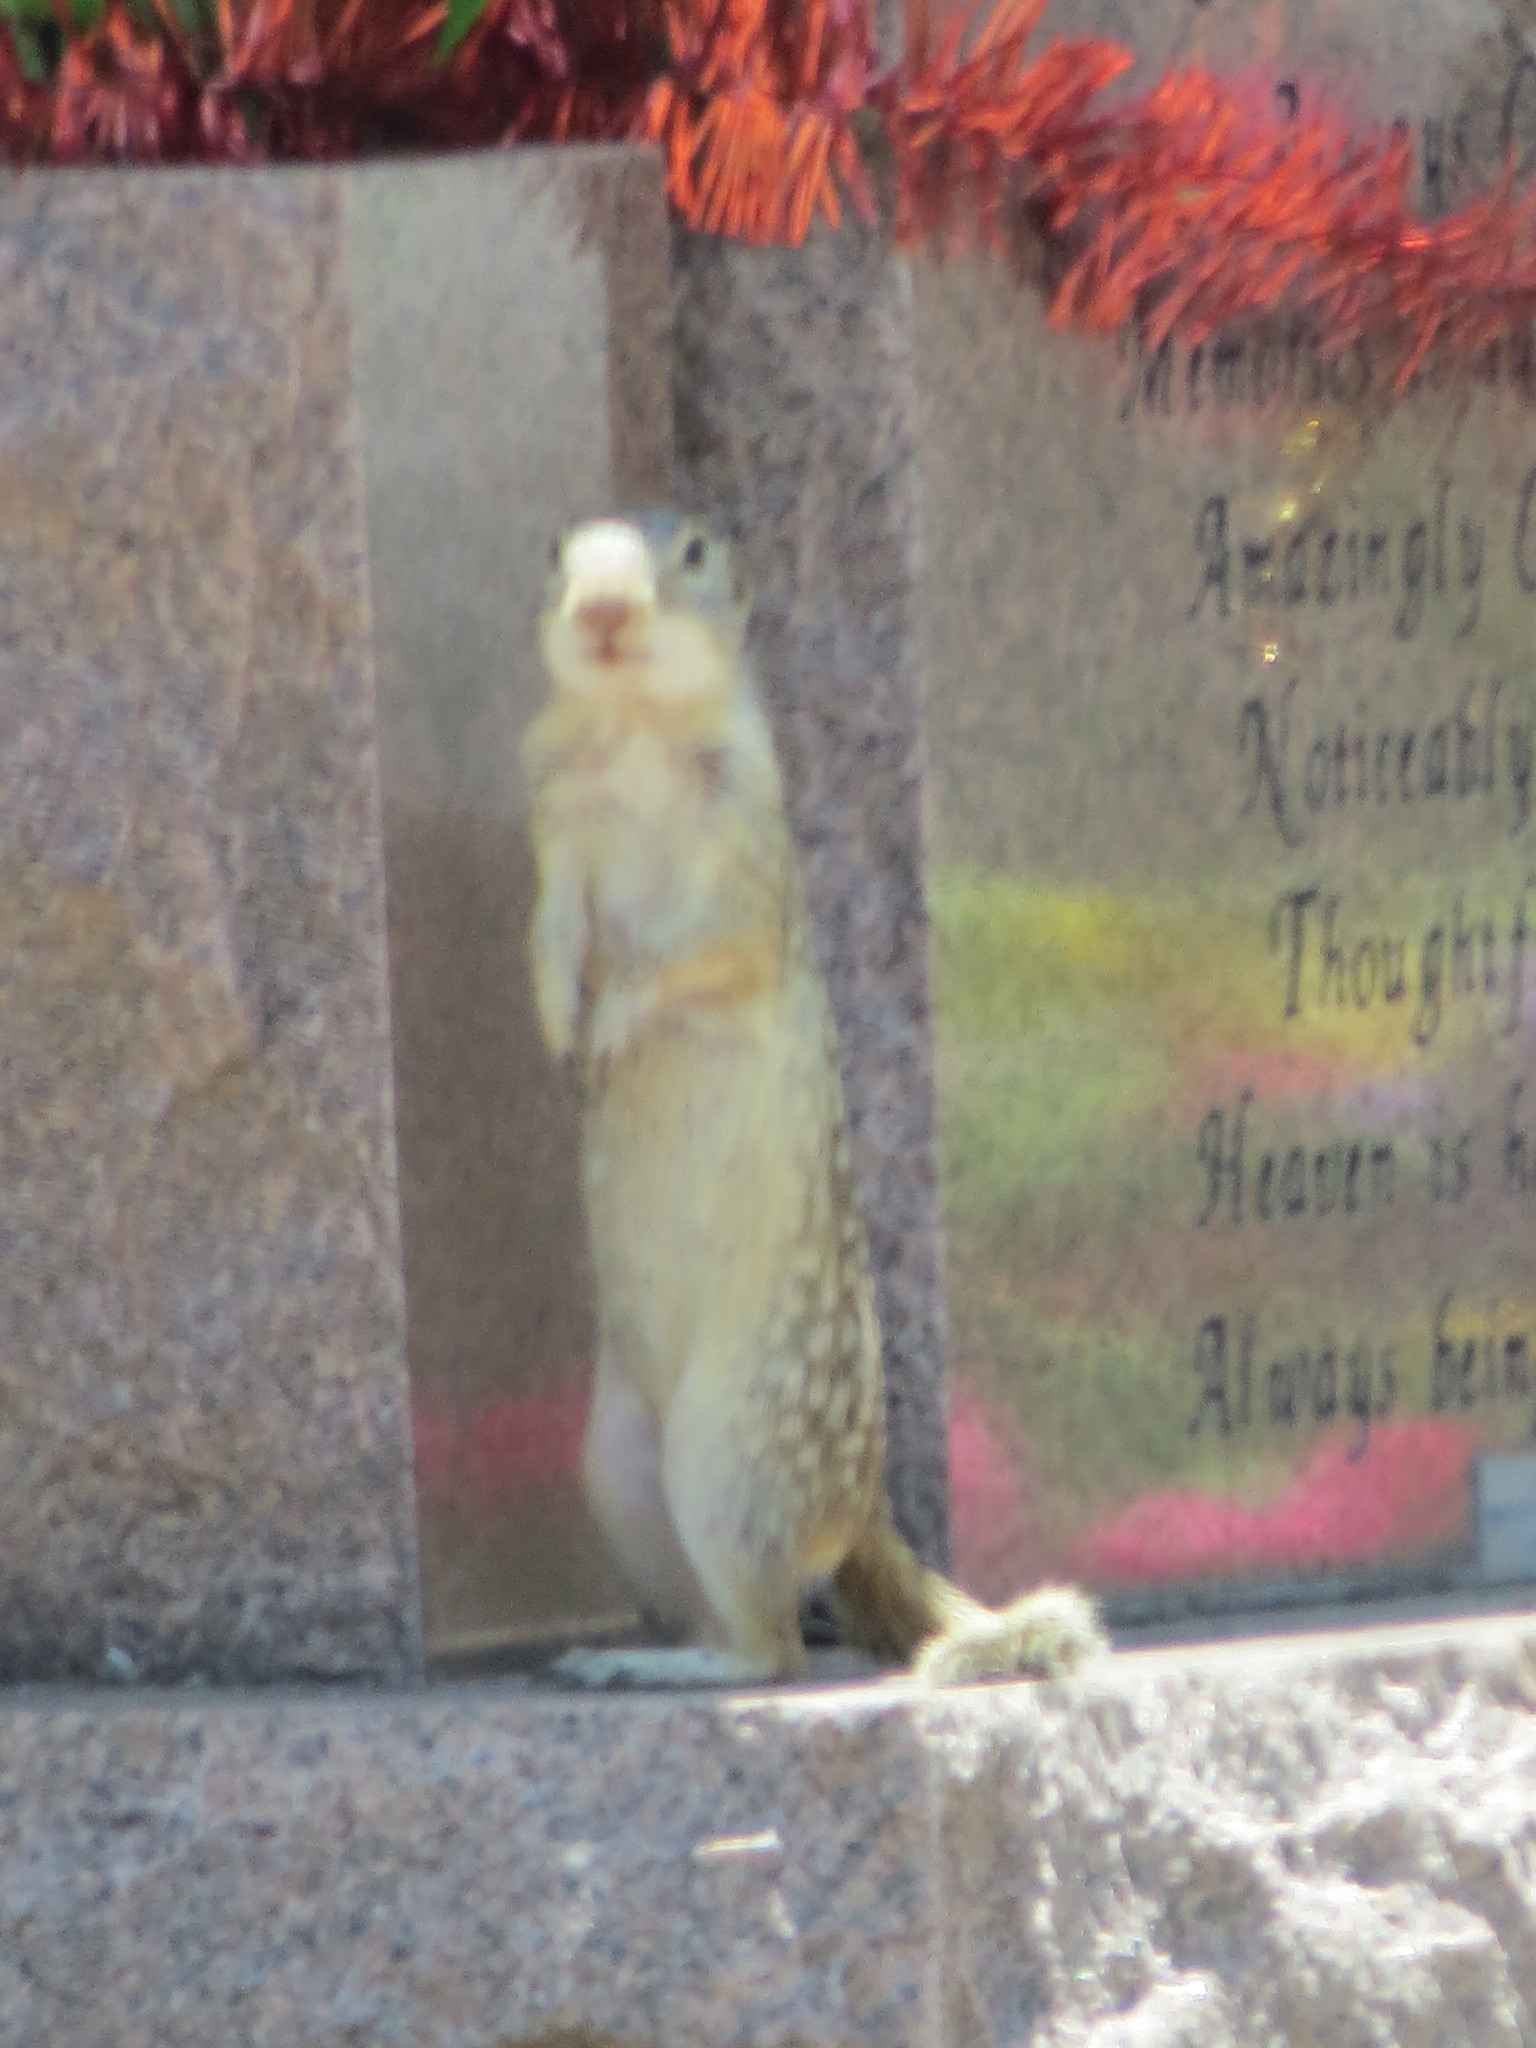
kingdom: Animalia
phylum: Chordata
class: Mammalia
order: Rodentia
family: Sciuridae
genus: Ictidomys
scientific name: Ictidomys parvidens
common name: Rio grande ground squirrel
